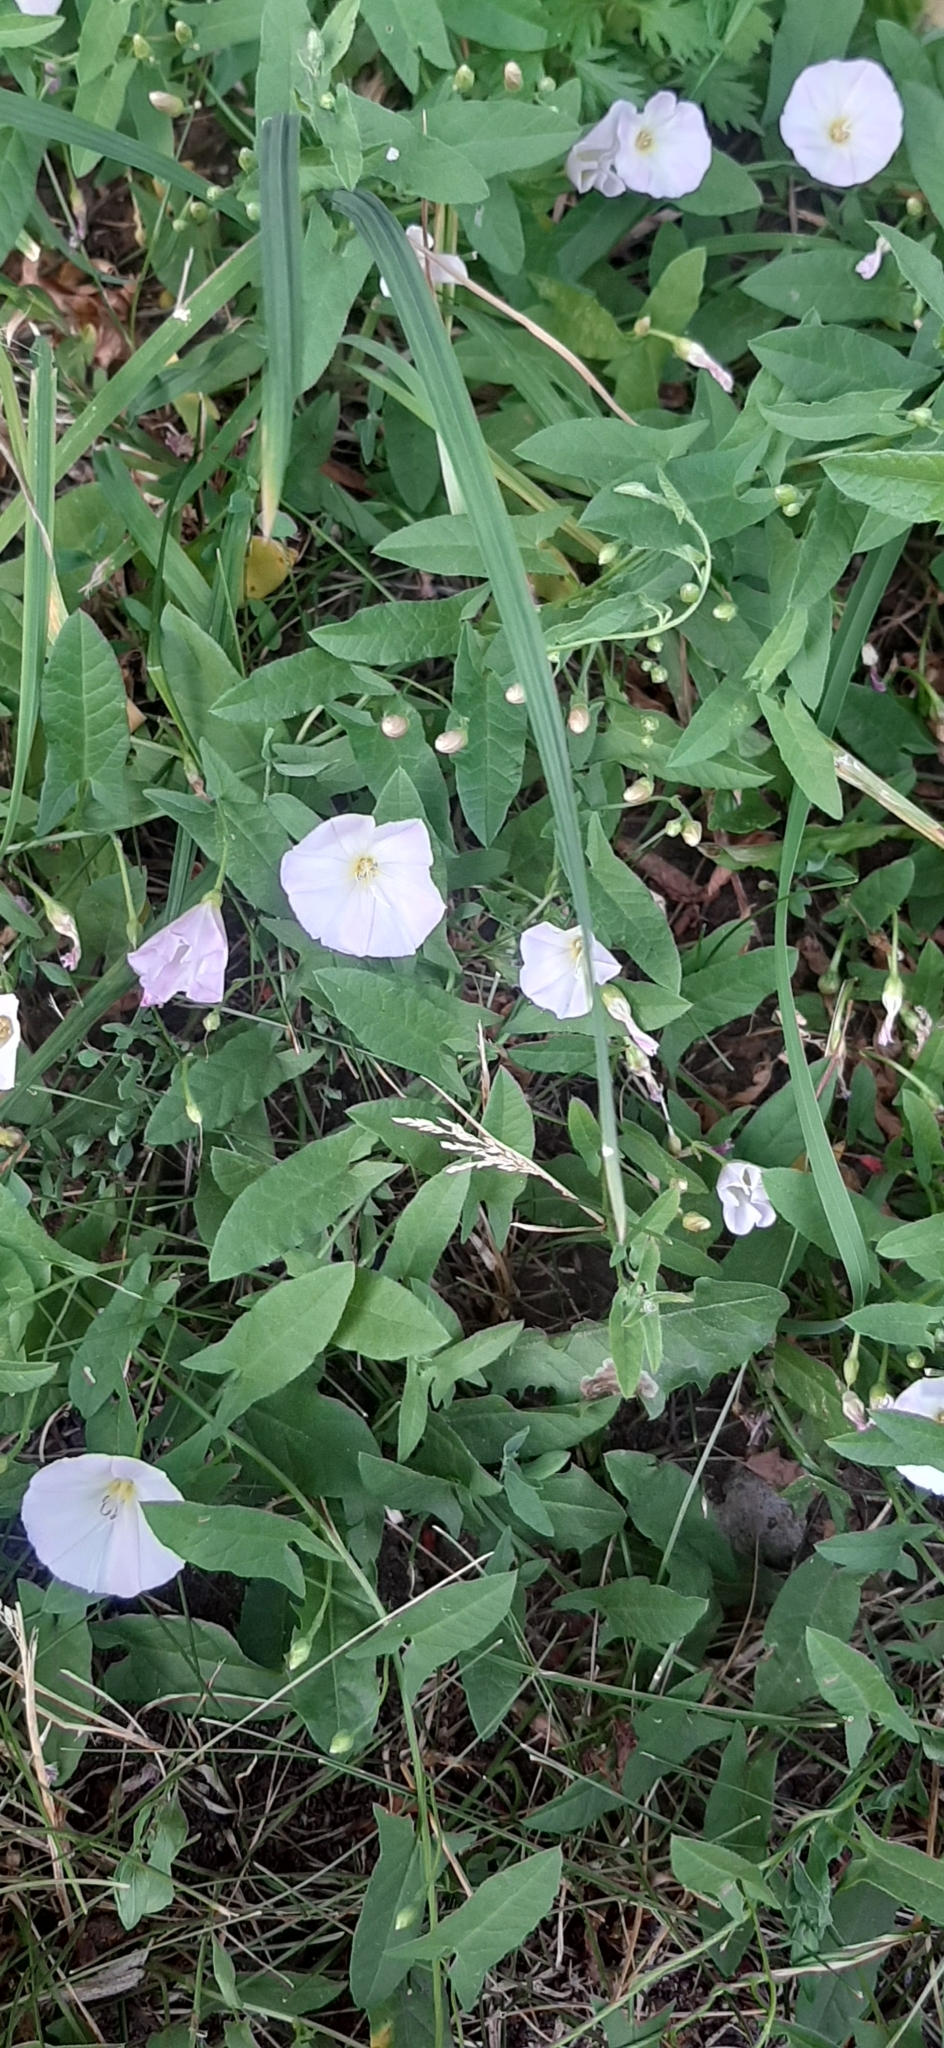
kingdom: Plantae
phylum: Tracheophyta
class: Magnoliopsida
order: Solanales
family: Convolvulaceae
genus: Convolvulus
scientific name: Convolvulus arvensis
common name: Field bindweed
